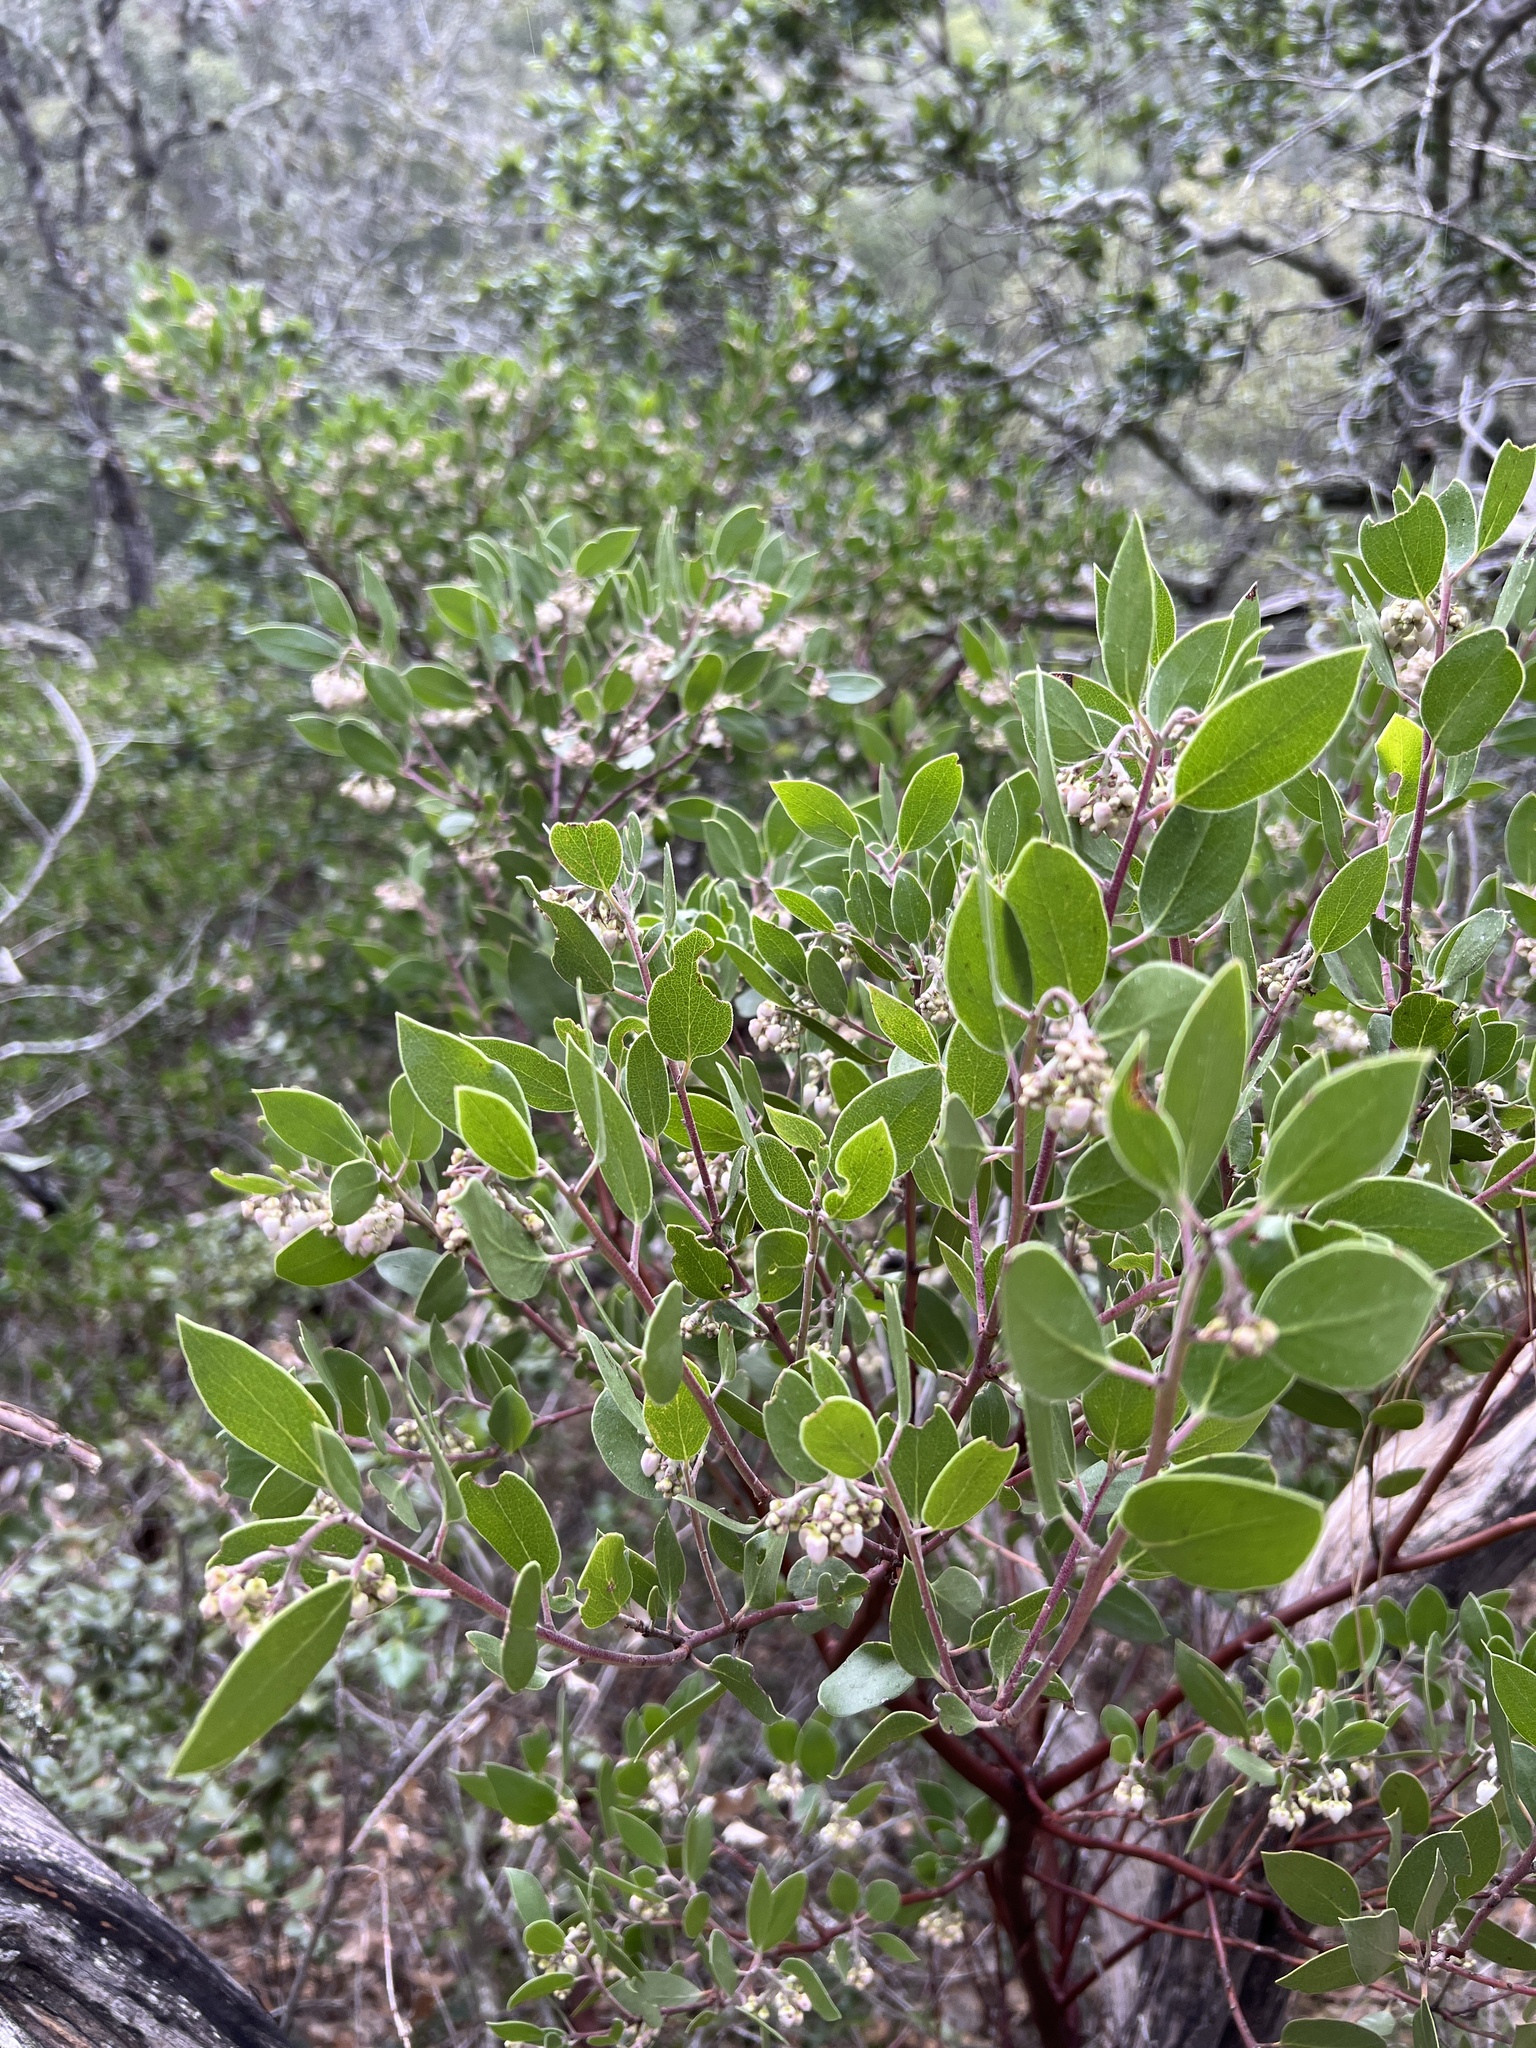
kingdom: Plantae
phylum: Tracheophyta
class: Magnoliopsida
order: Ericales
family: Ericaceae
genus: Arctostaphylos
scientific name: Arctostaphylos manzanita
